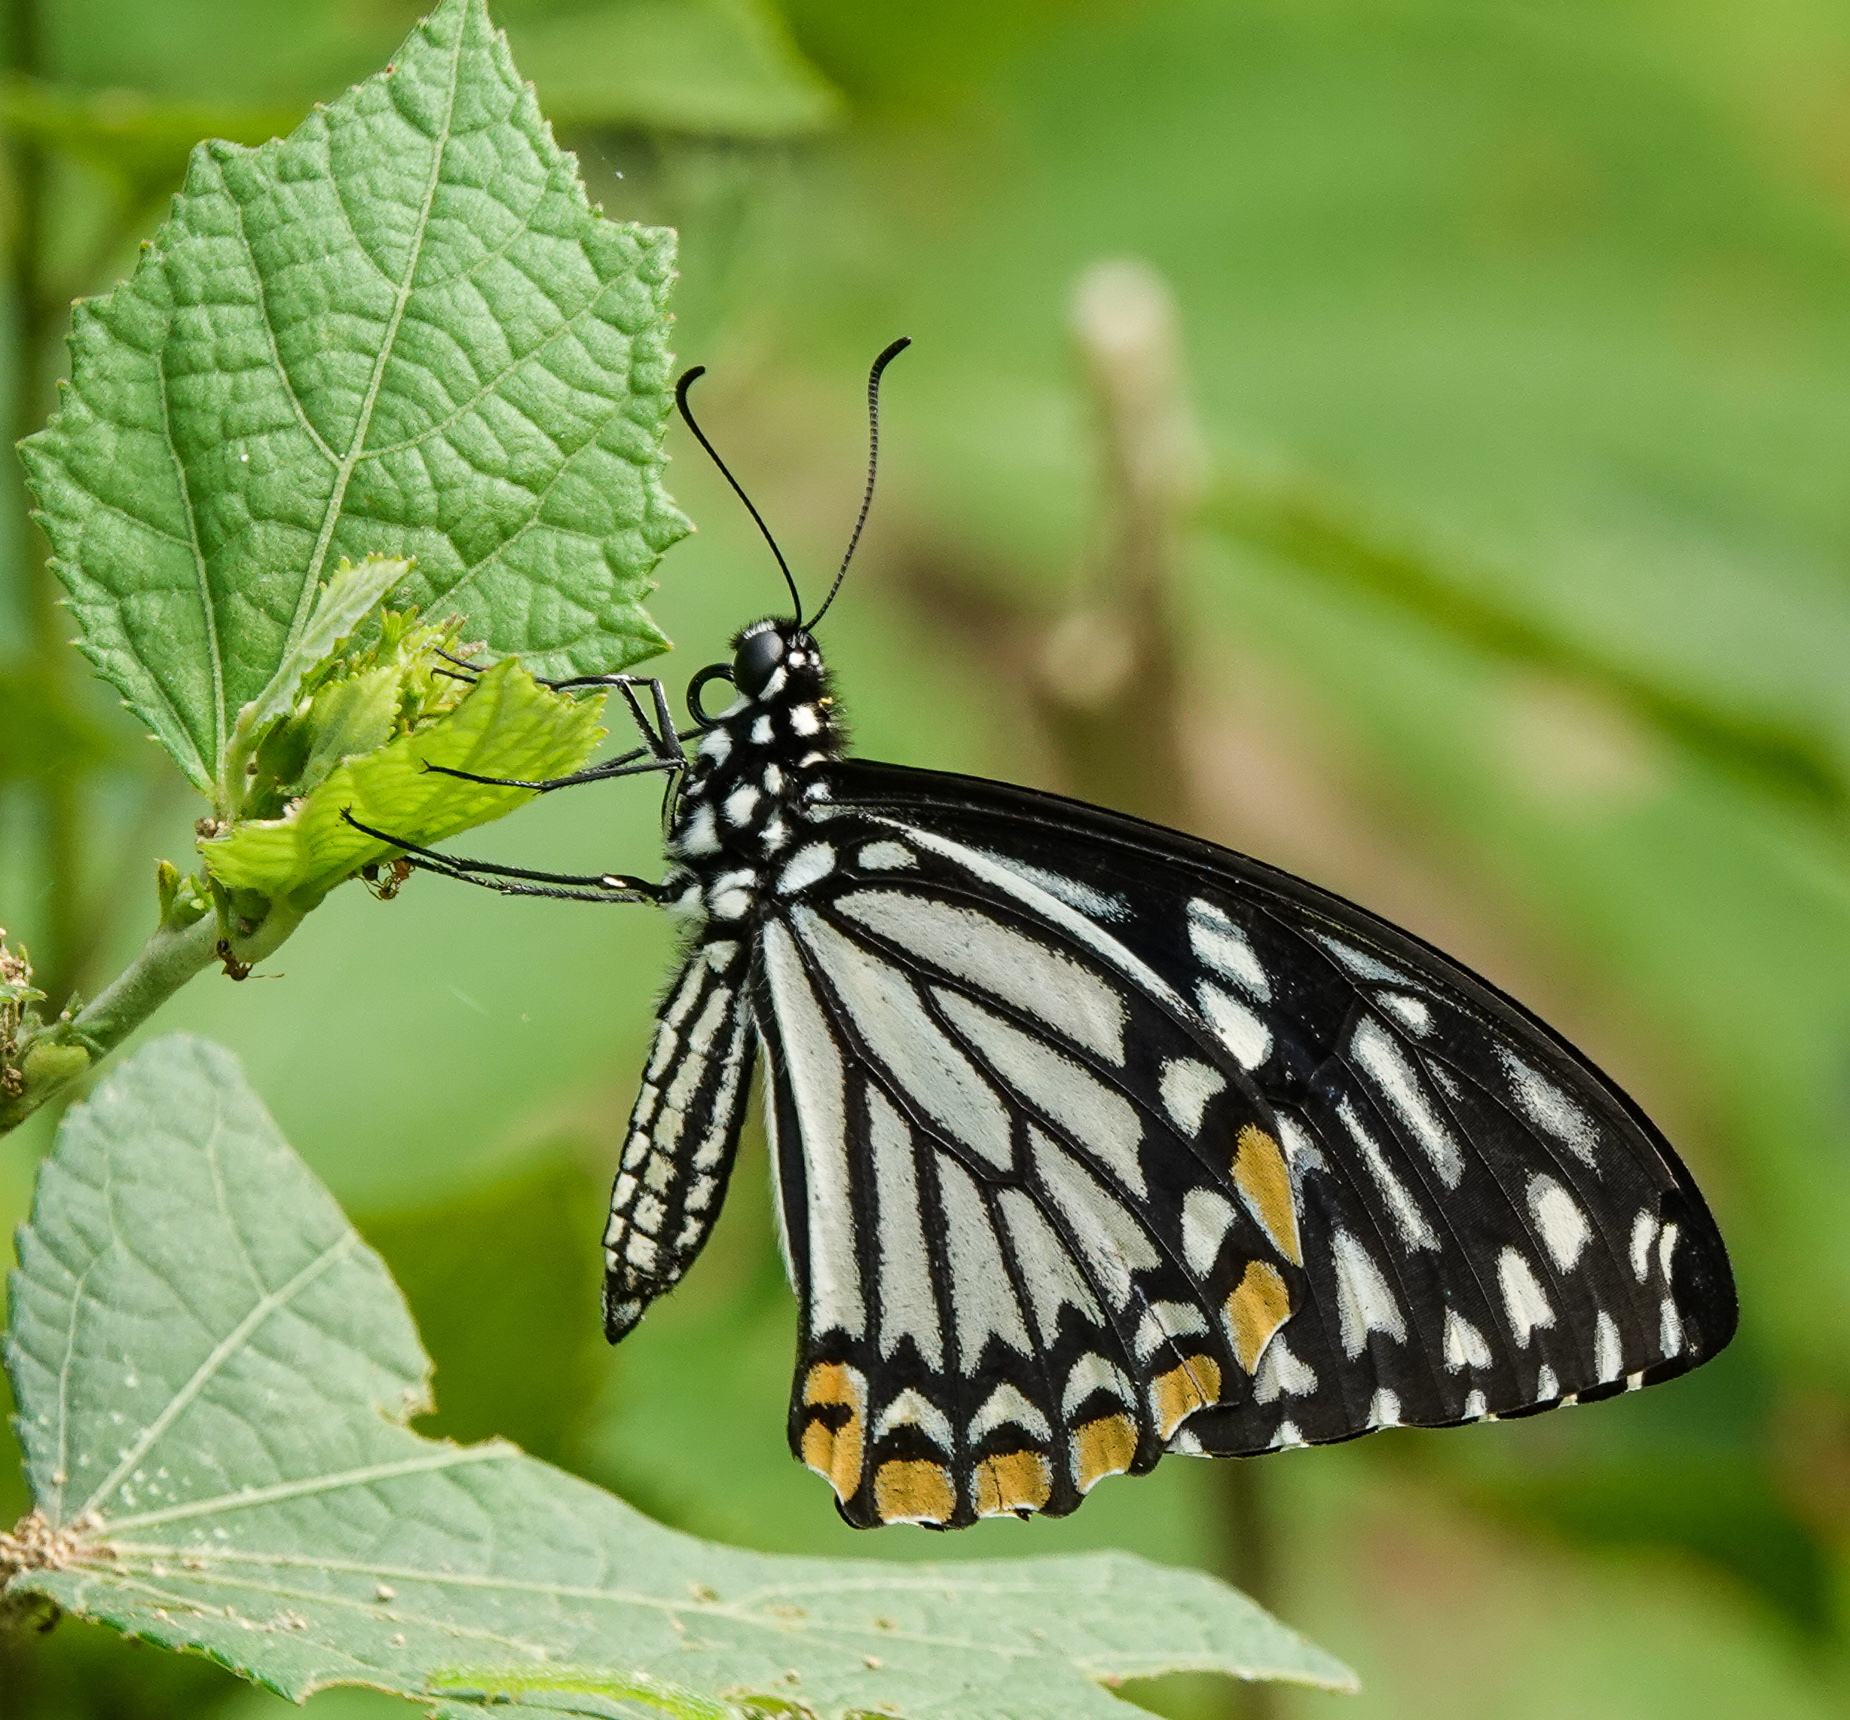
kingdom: Animalia
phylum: Arthropoda
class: Insecta
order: Lepidoptera
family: Papilionidae
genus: Chilasa
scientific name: Chilasa clytia
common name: Common mime
